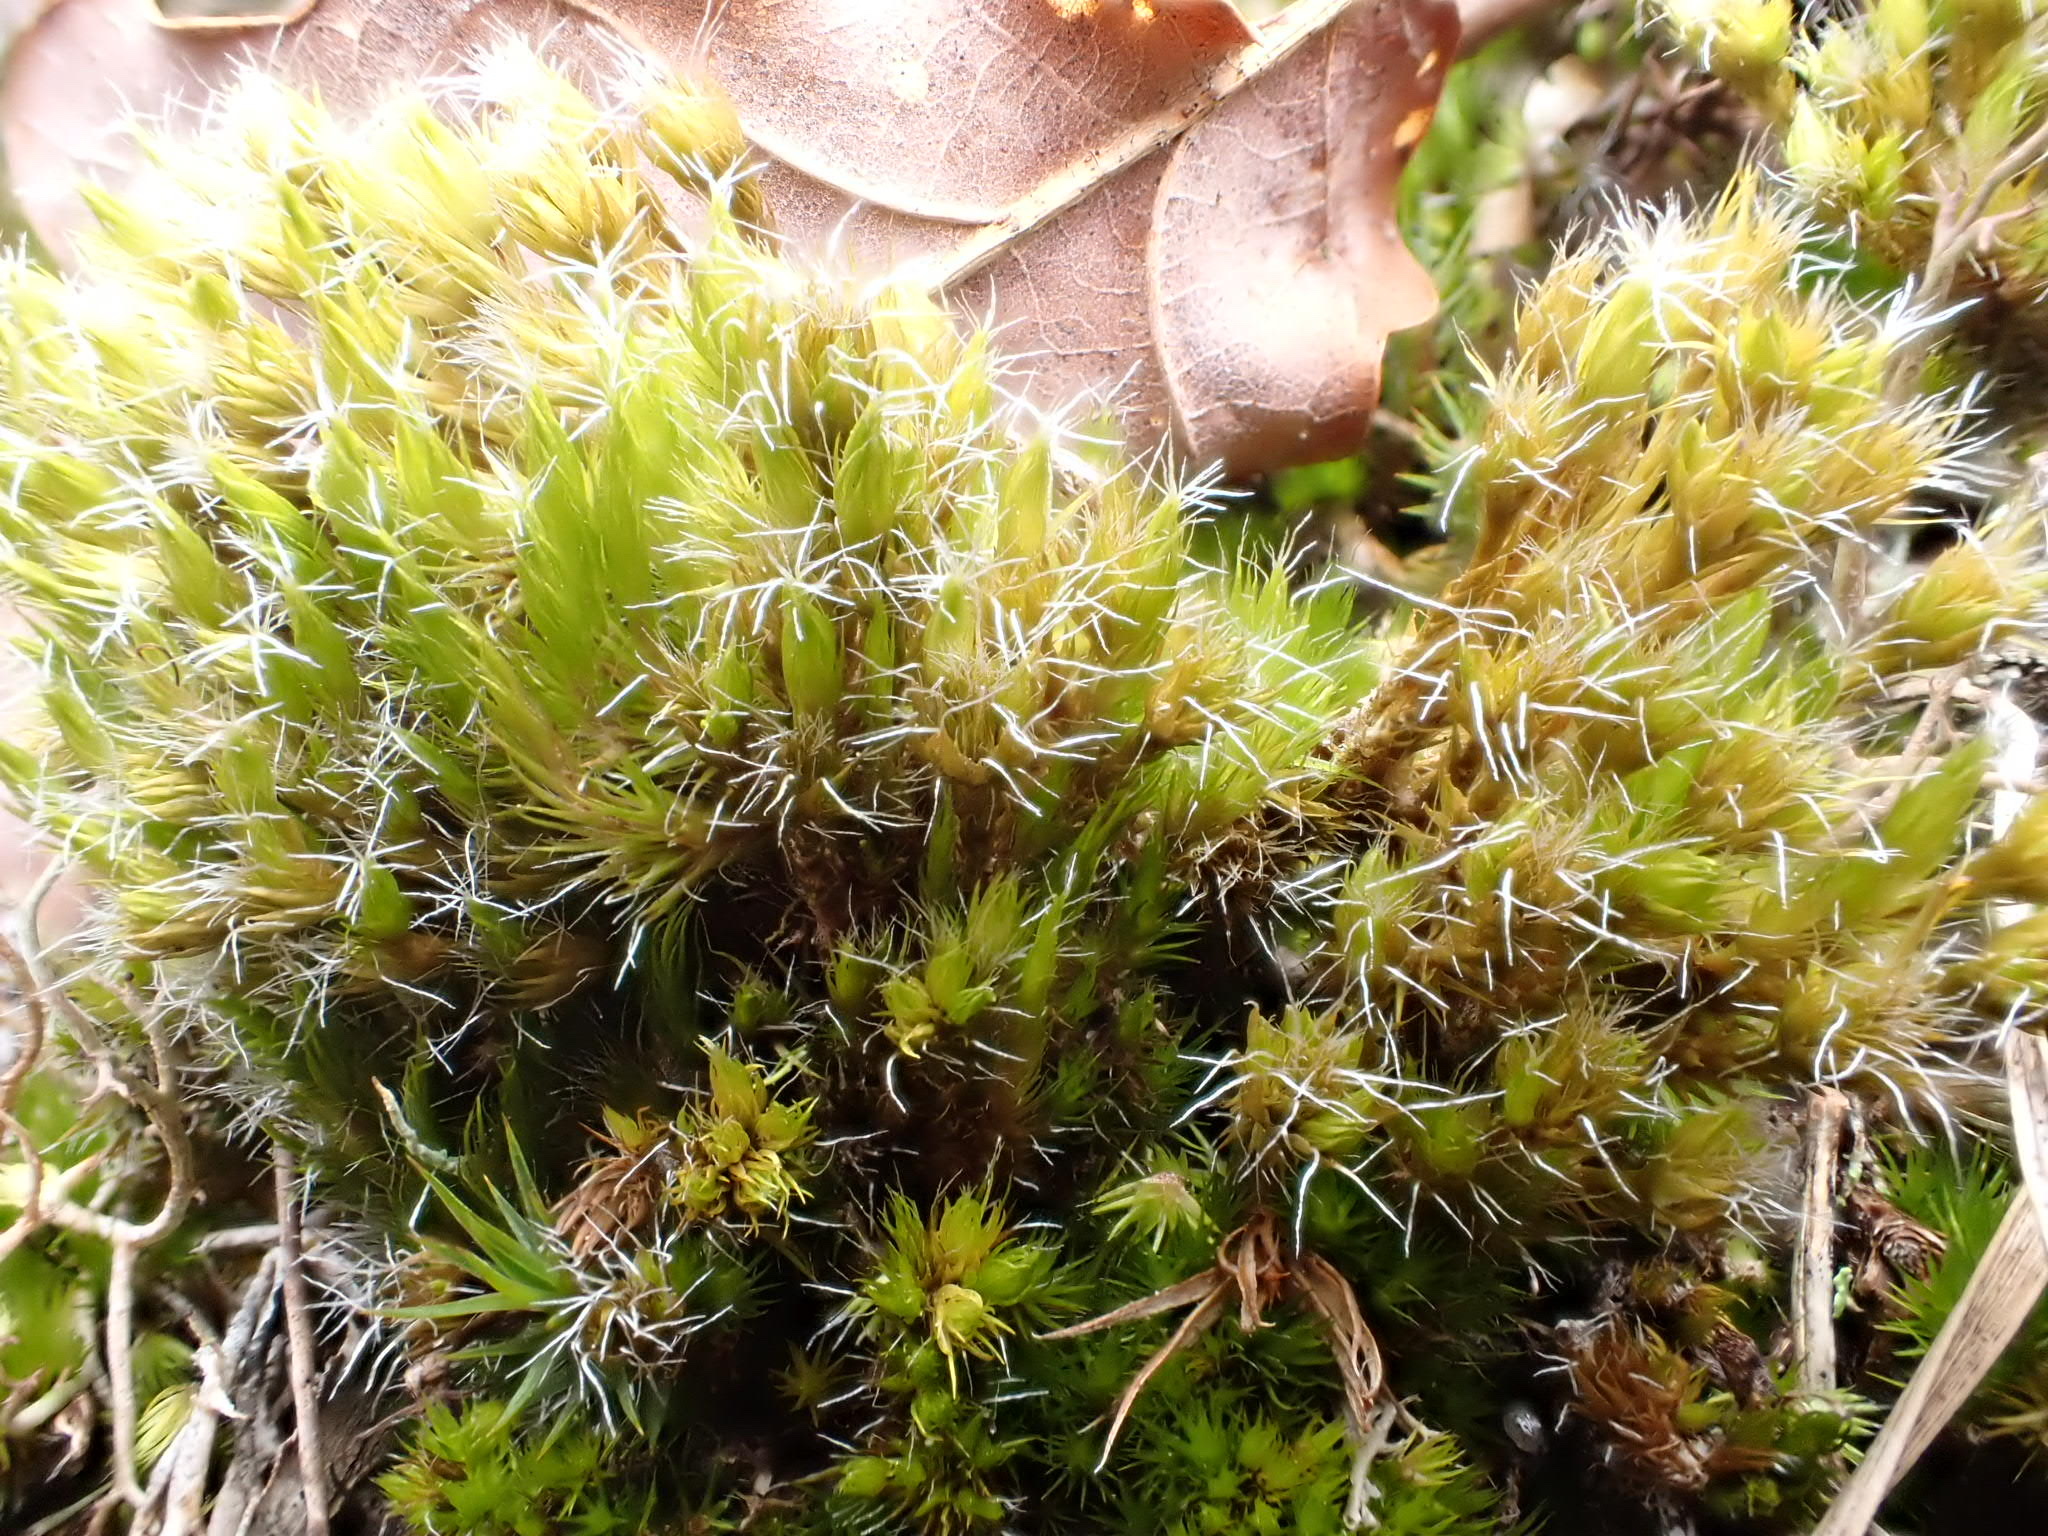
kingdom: Plantae
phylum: Bryophyta
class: Bryopsida
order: Dicranales
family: Leucobryaceae
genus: Campylopus
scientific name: Campylopus introflexus
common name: Heath star moss
